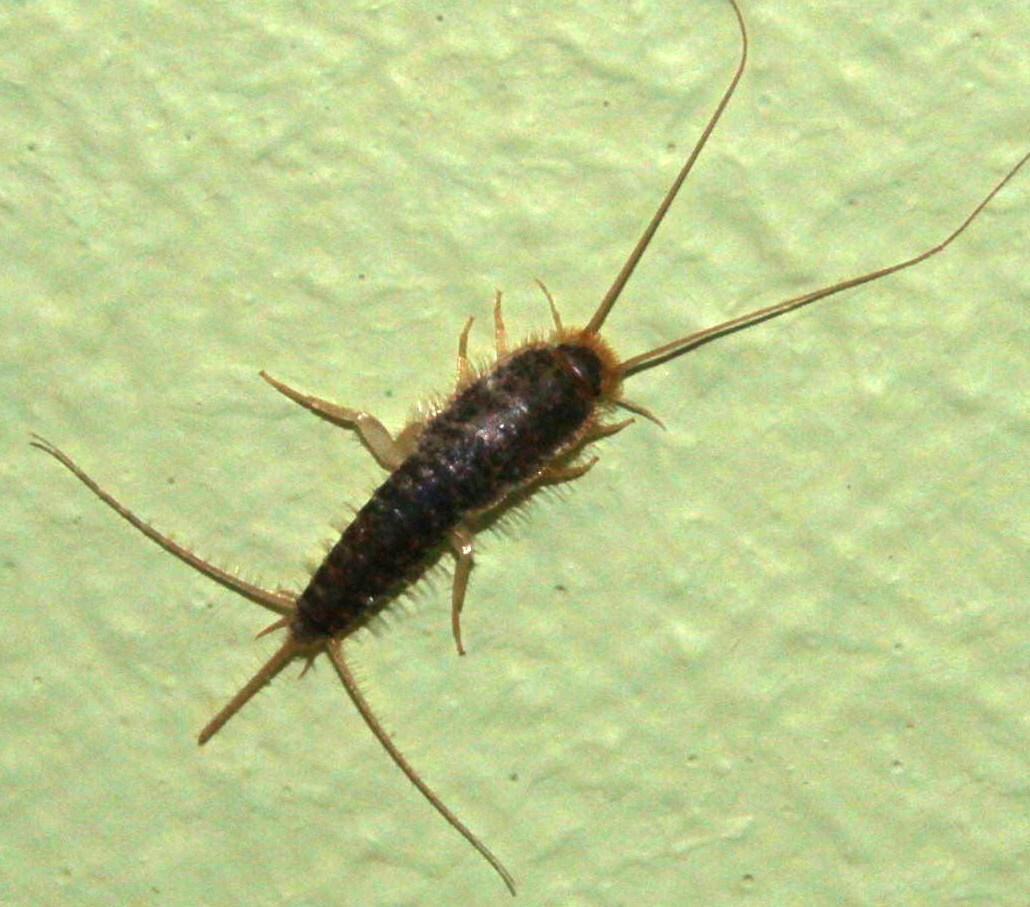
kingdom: Animalia
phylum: Arthropoda
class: Insecta
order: Zygentoma
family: Lepismatidae
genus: Ctenolepisma
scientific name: Ctenolepisma longicaudatum
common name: Silverfish
